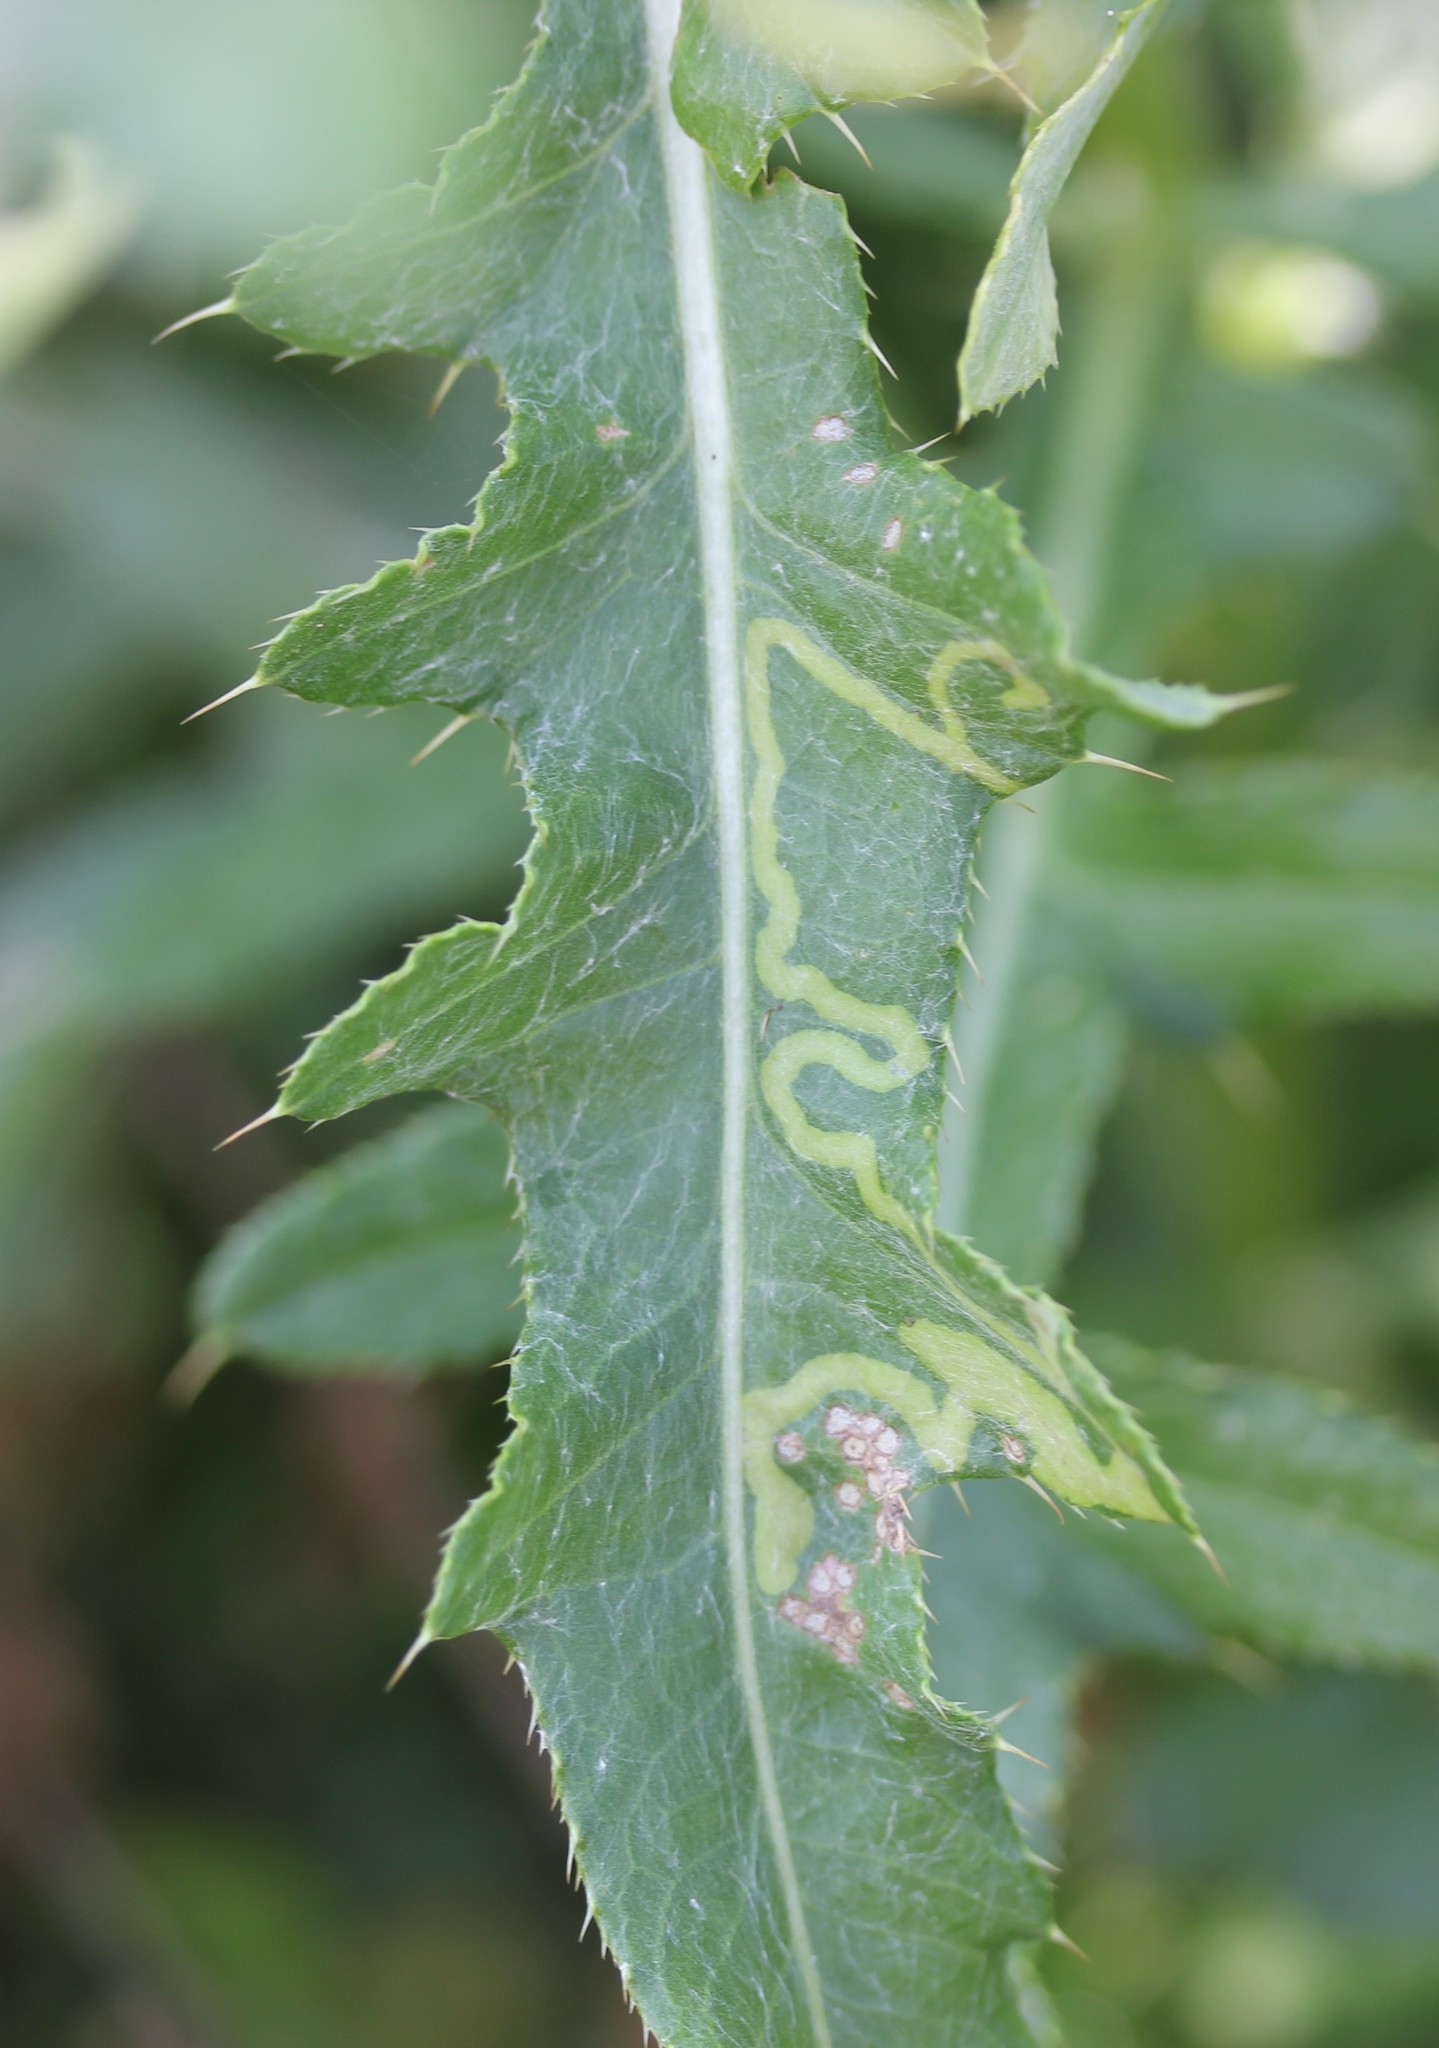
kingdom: Plantae
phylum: Tracheophyta
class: Magnoliopsida
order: Asterales
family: Asteraceae
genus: Cirsium
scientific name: Cirsium arvense
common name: Creeping thistle
